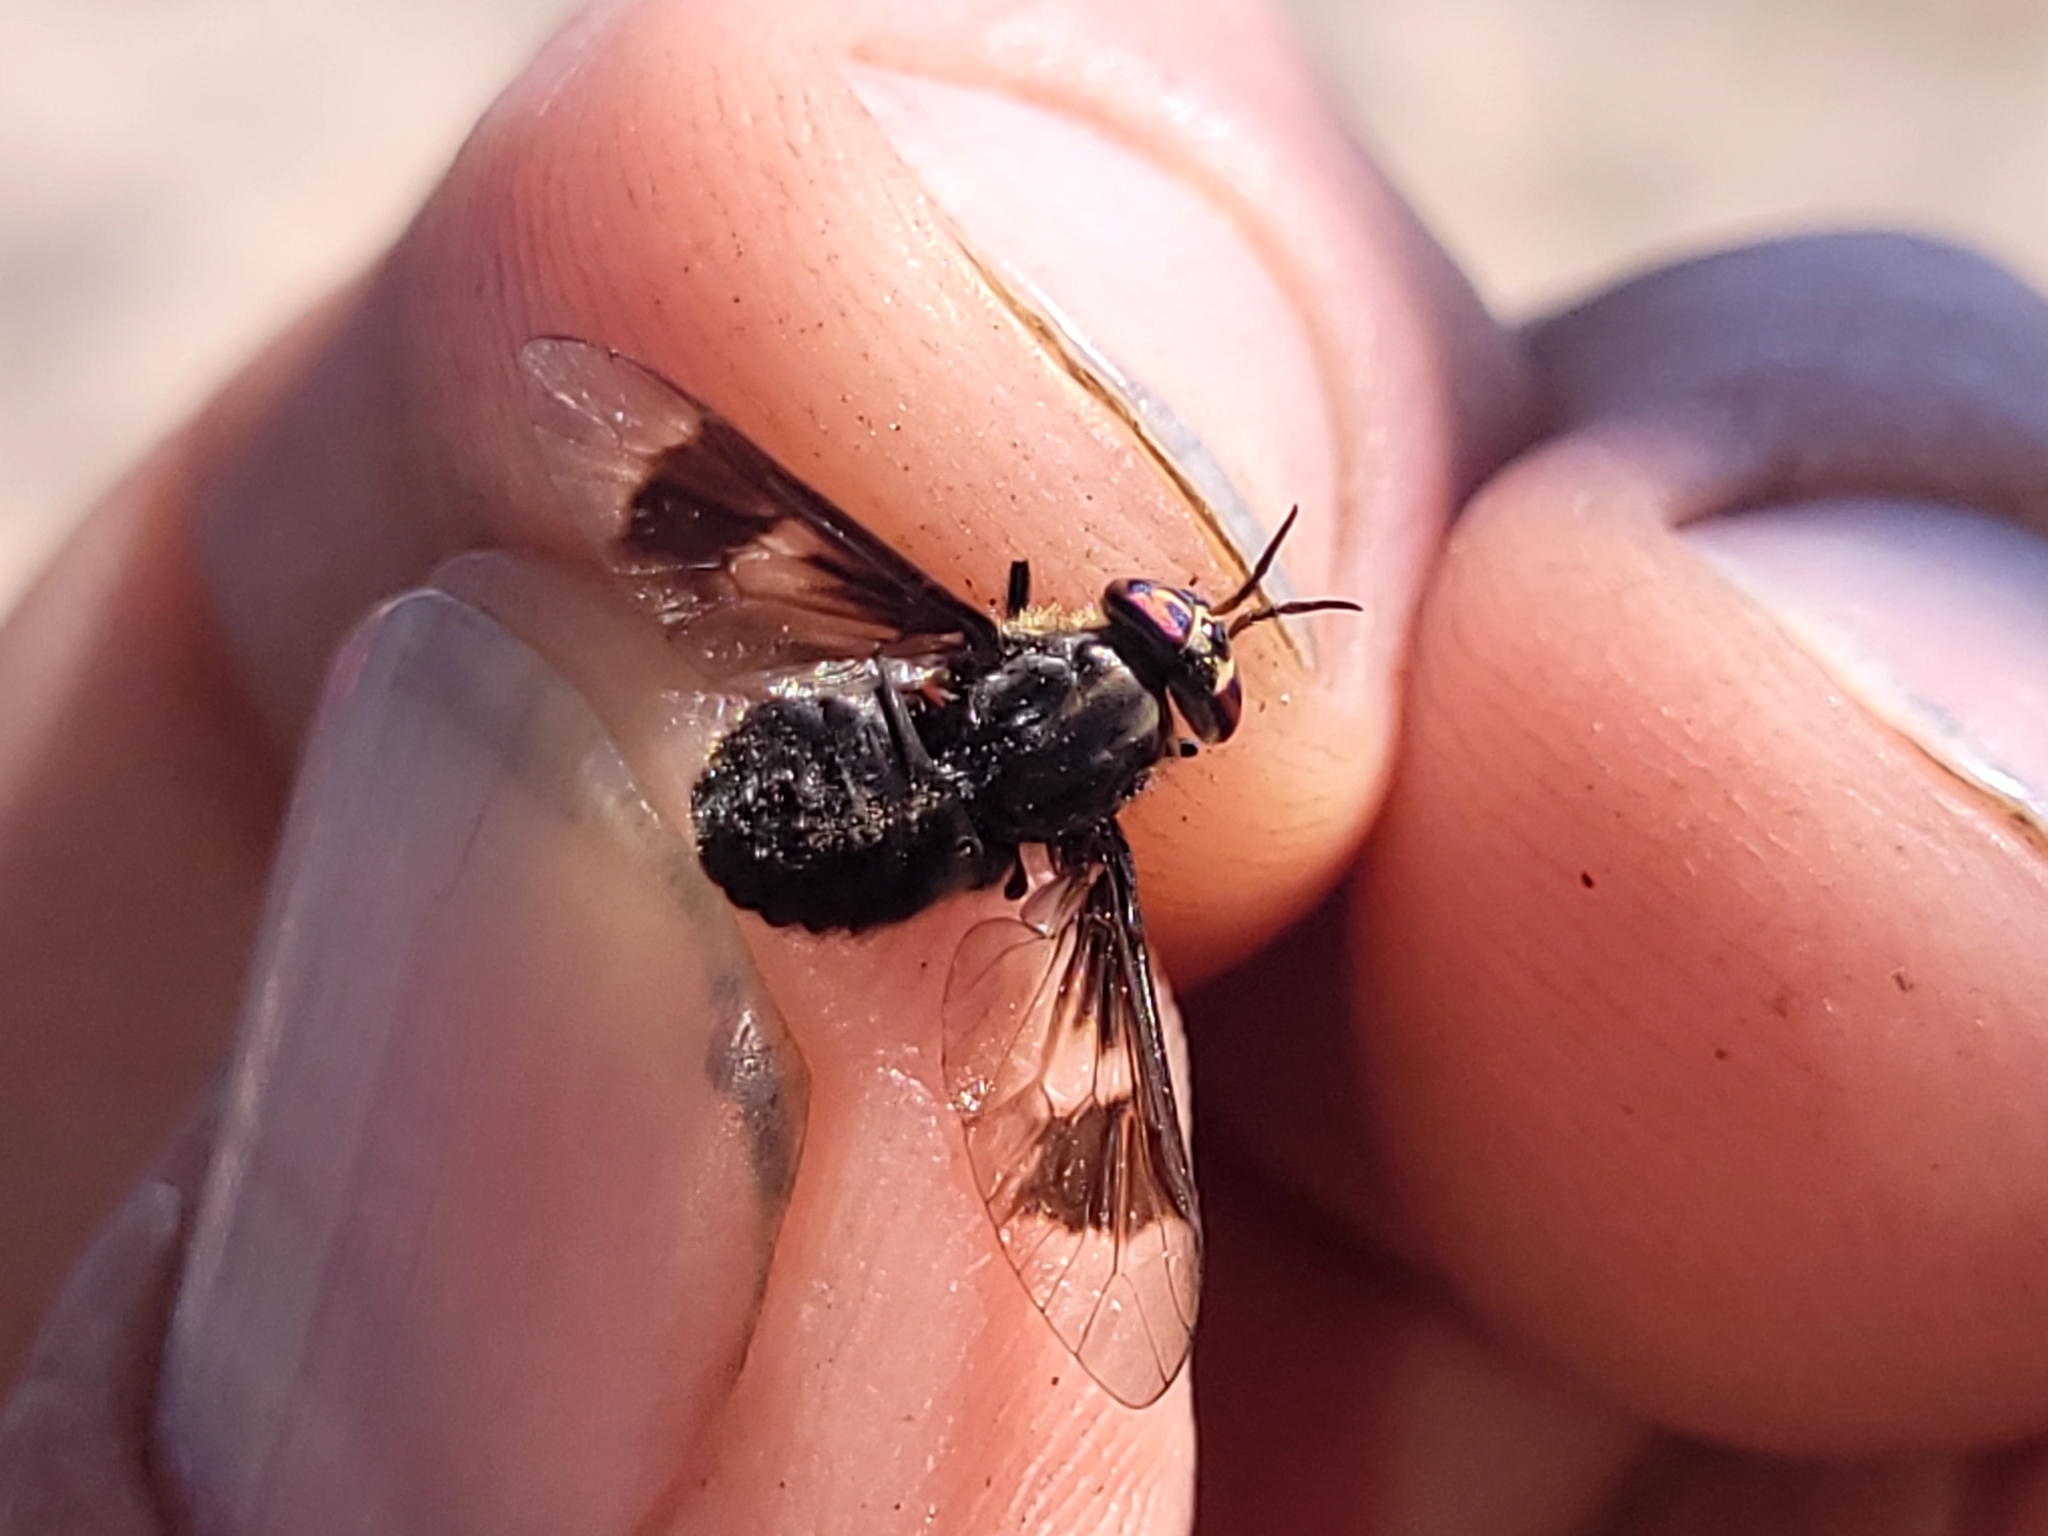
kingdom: Animalia
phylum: Arthropoda
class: Insecta
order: Diptera
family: Tabanidae
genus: Chrysops
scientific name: Chrysops ater
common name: Dark deer fly
